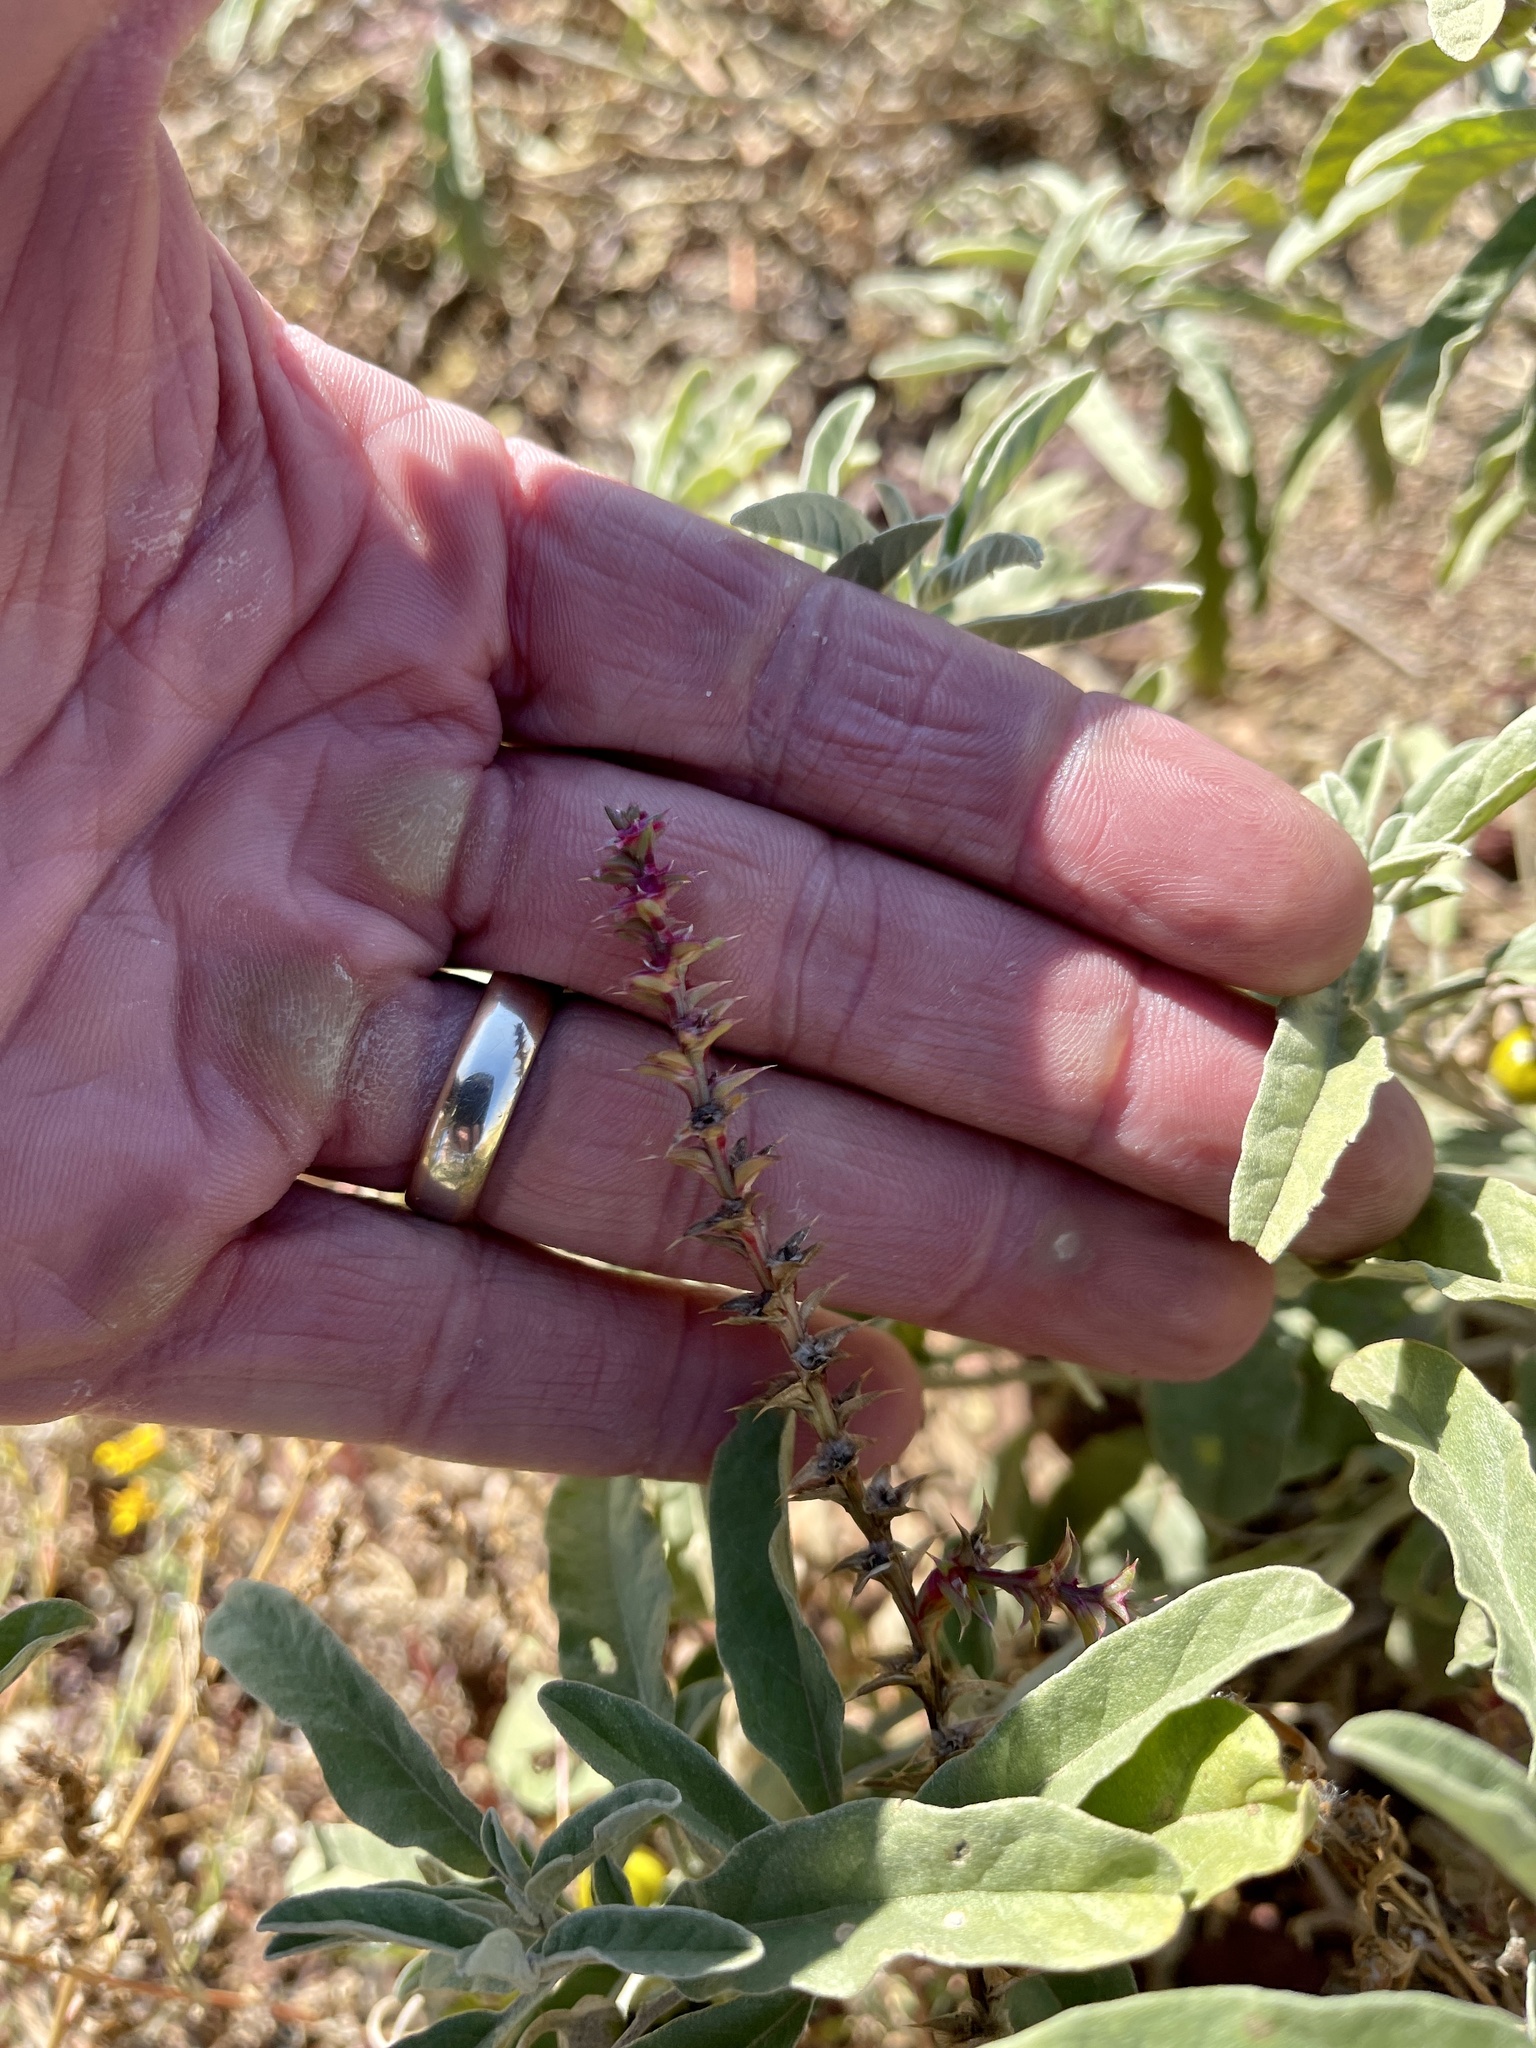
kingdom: Plantae
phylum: Tracheophyta
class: Magnoliopsida
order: Caryophyllales
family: Amaranthaceae
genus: Salsola
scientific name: Salsola tragus
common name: Prickly russian thistle
